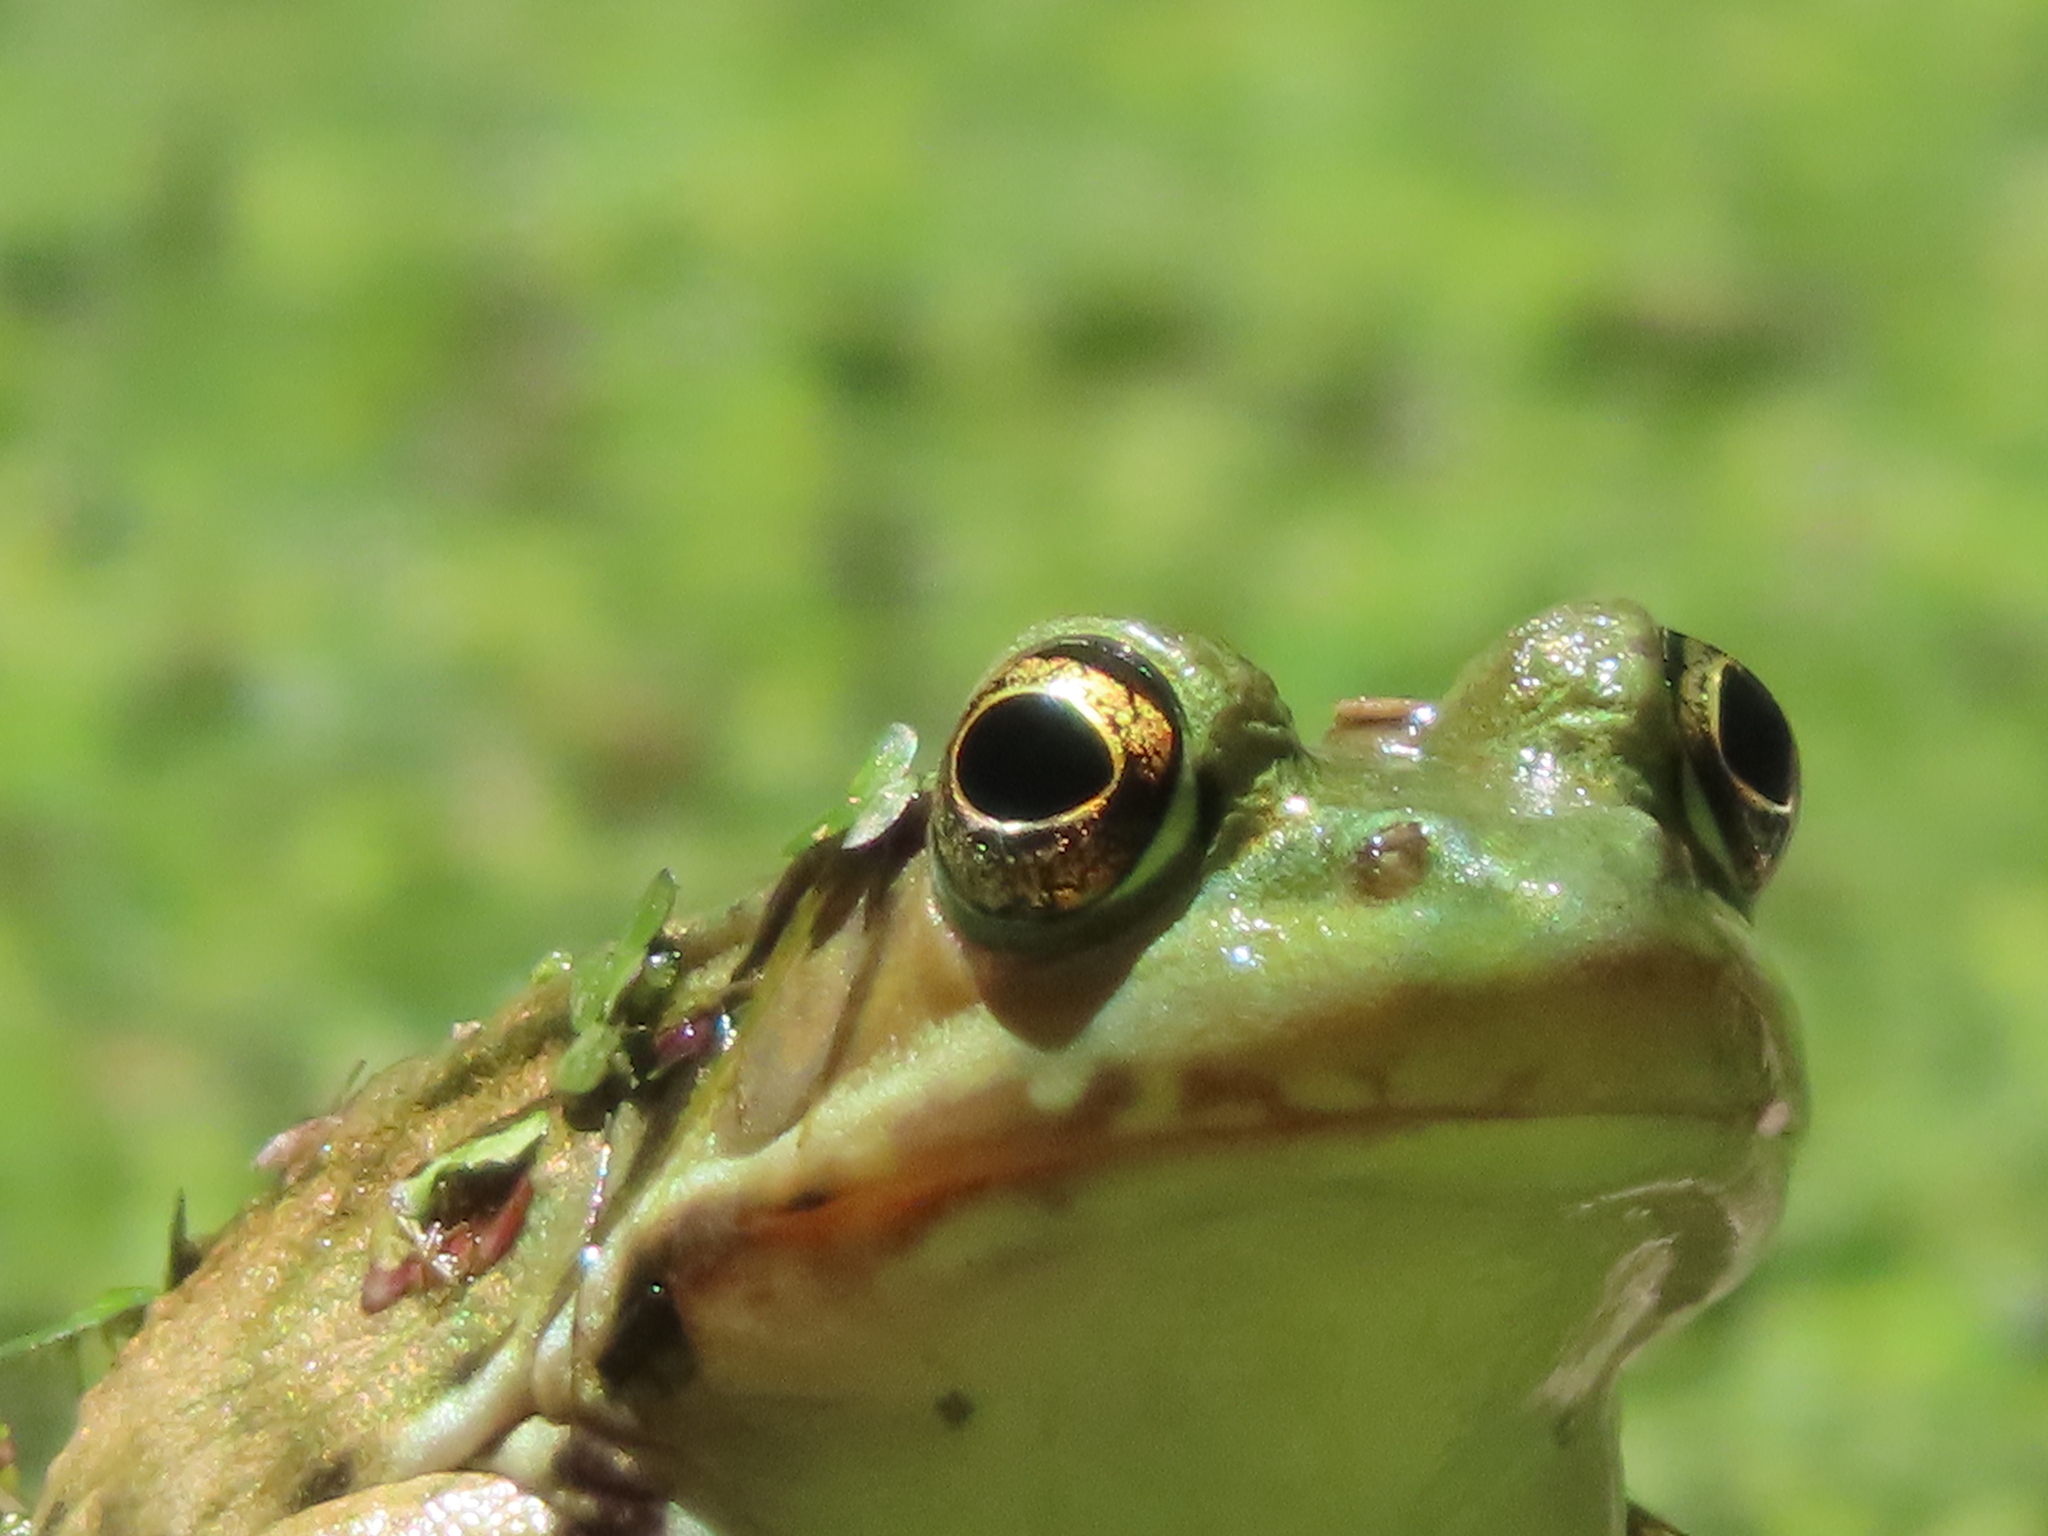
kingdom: Animalia
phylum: Chordata
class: Amphibia
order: Anura
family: Ranidae
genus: Lithobates
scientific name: Lithobates clamitans
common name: Green frog
